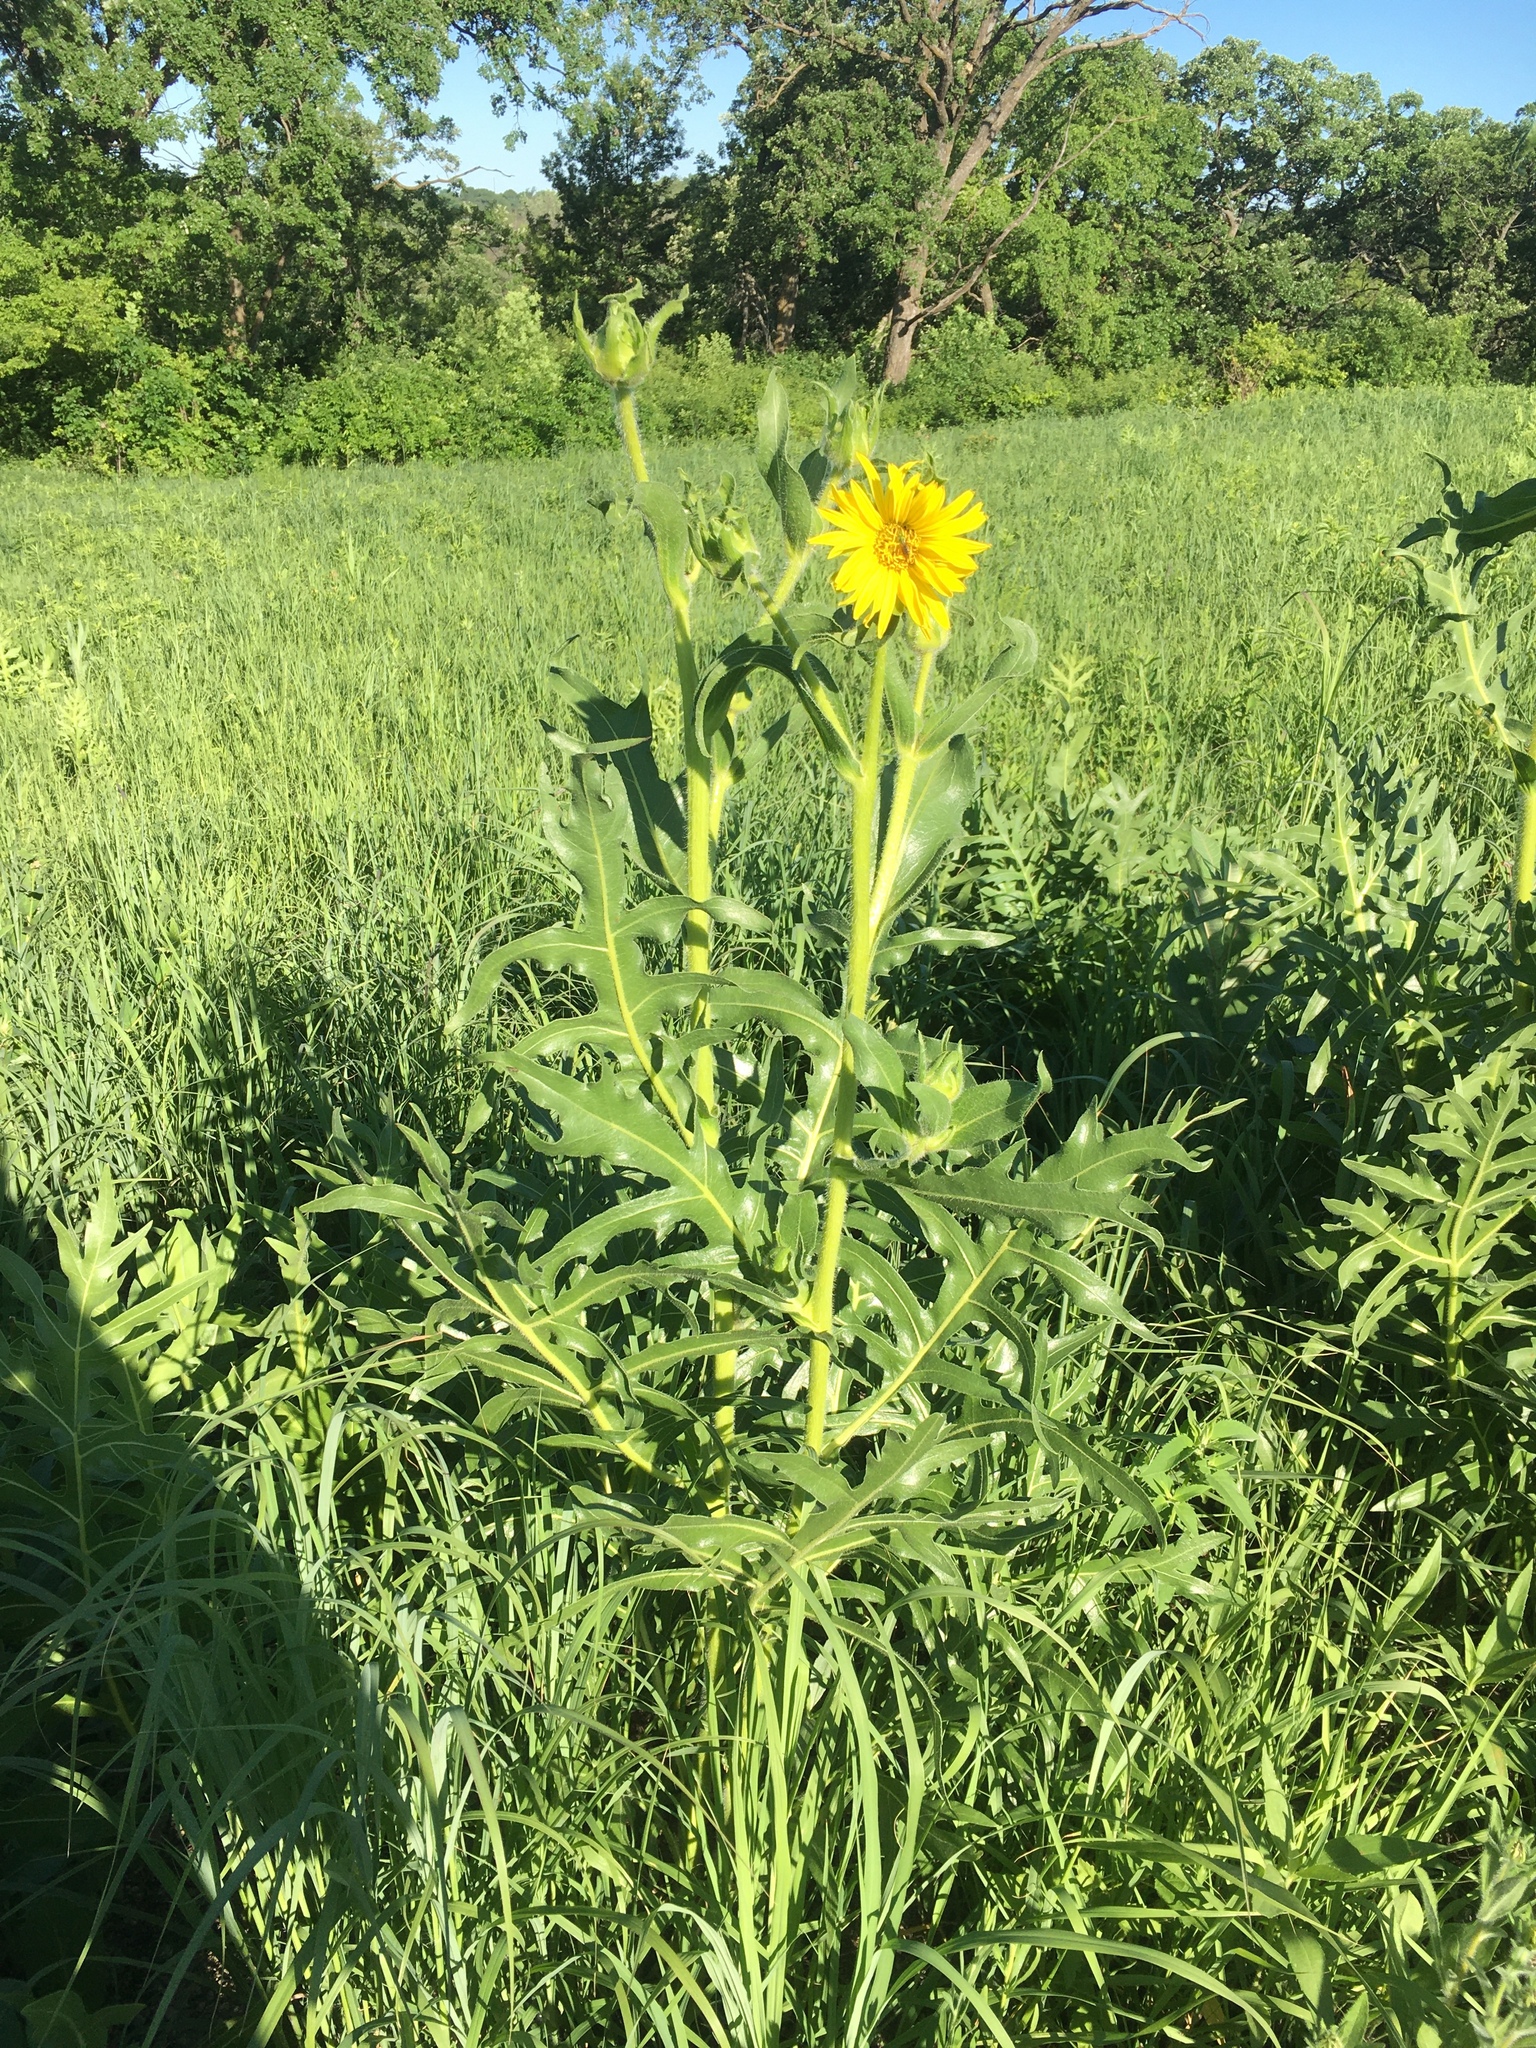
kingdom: Plantae
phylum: Tracheophyta
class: Magnoliopsida
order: Asterales
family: Asteraceae
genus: Silphium
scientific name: Silphium laciniatum
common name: Polarplant
